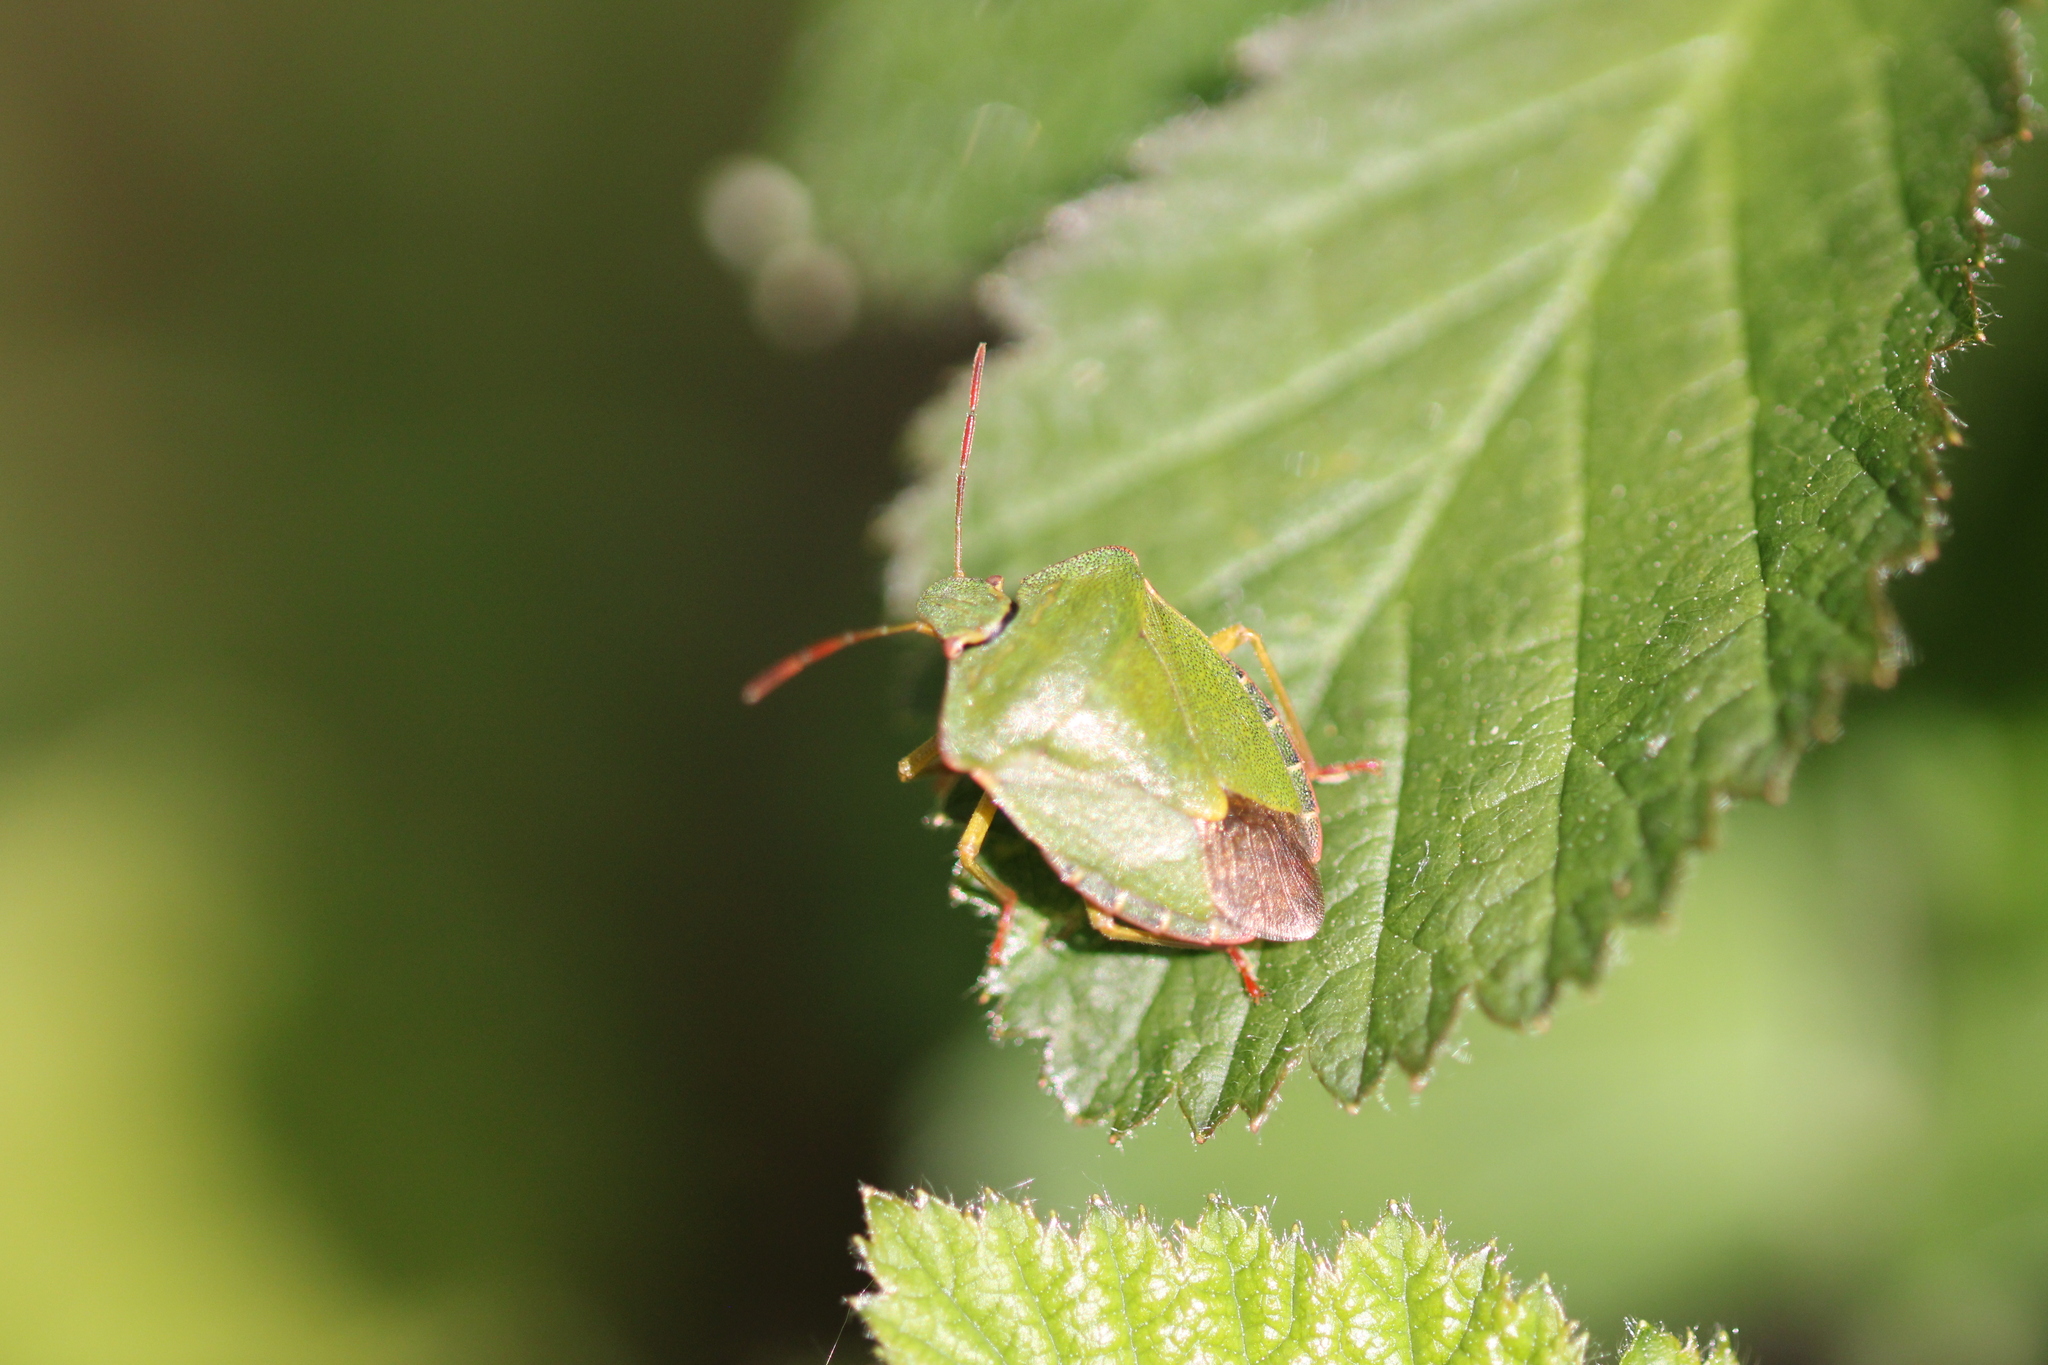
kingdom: Animalia
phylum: Arthropoda
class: Insecta
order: Hemiptera
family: Pentatomidae
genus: Palomena
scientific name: Palomena prasina
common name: Green shieldbug
